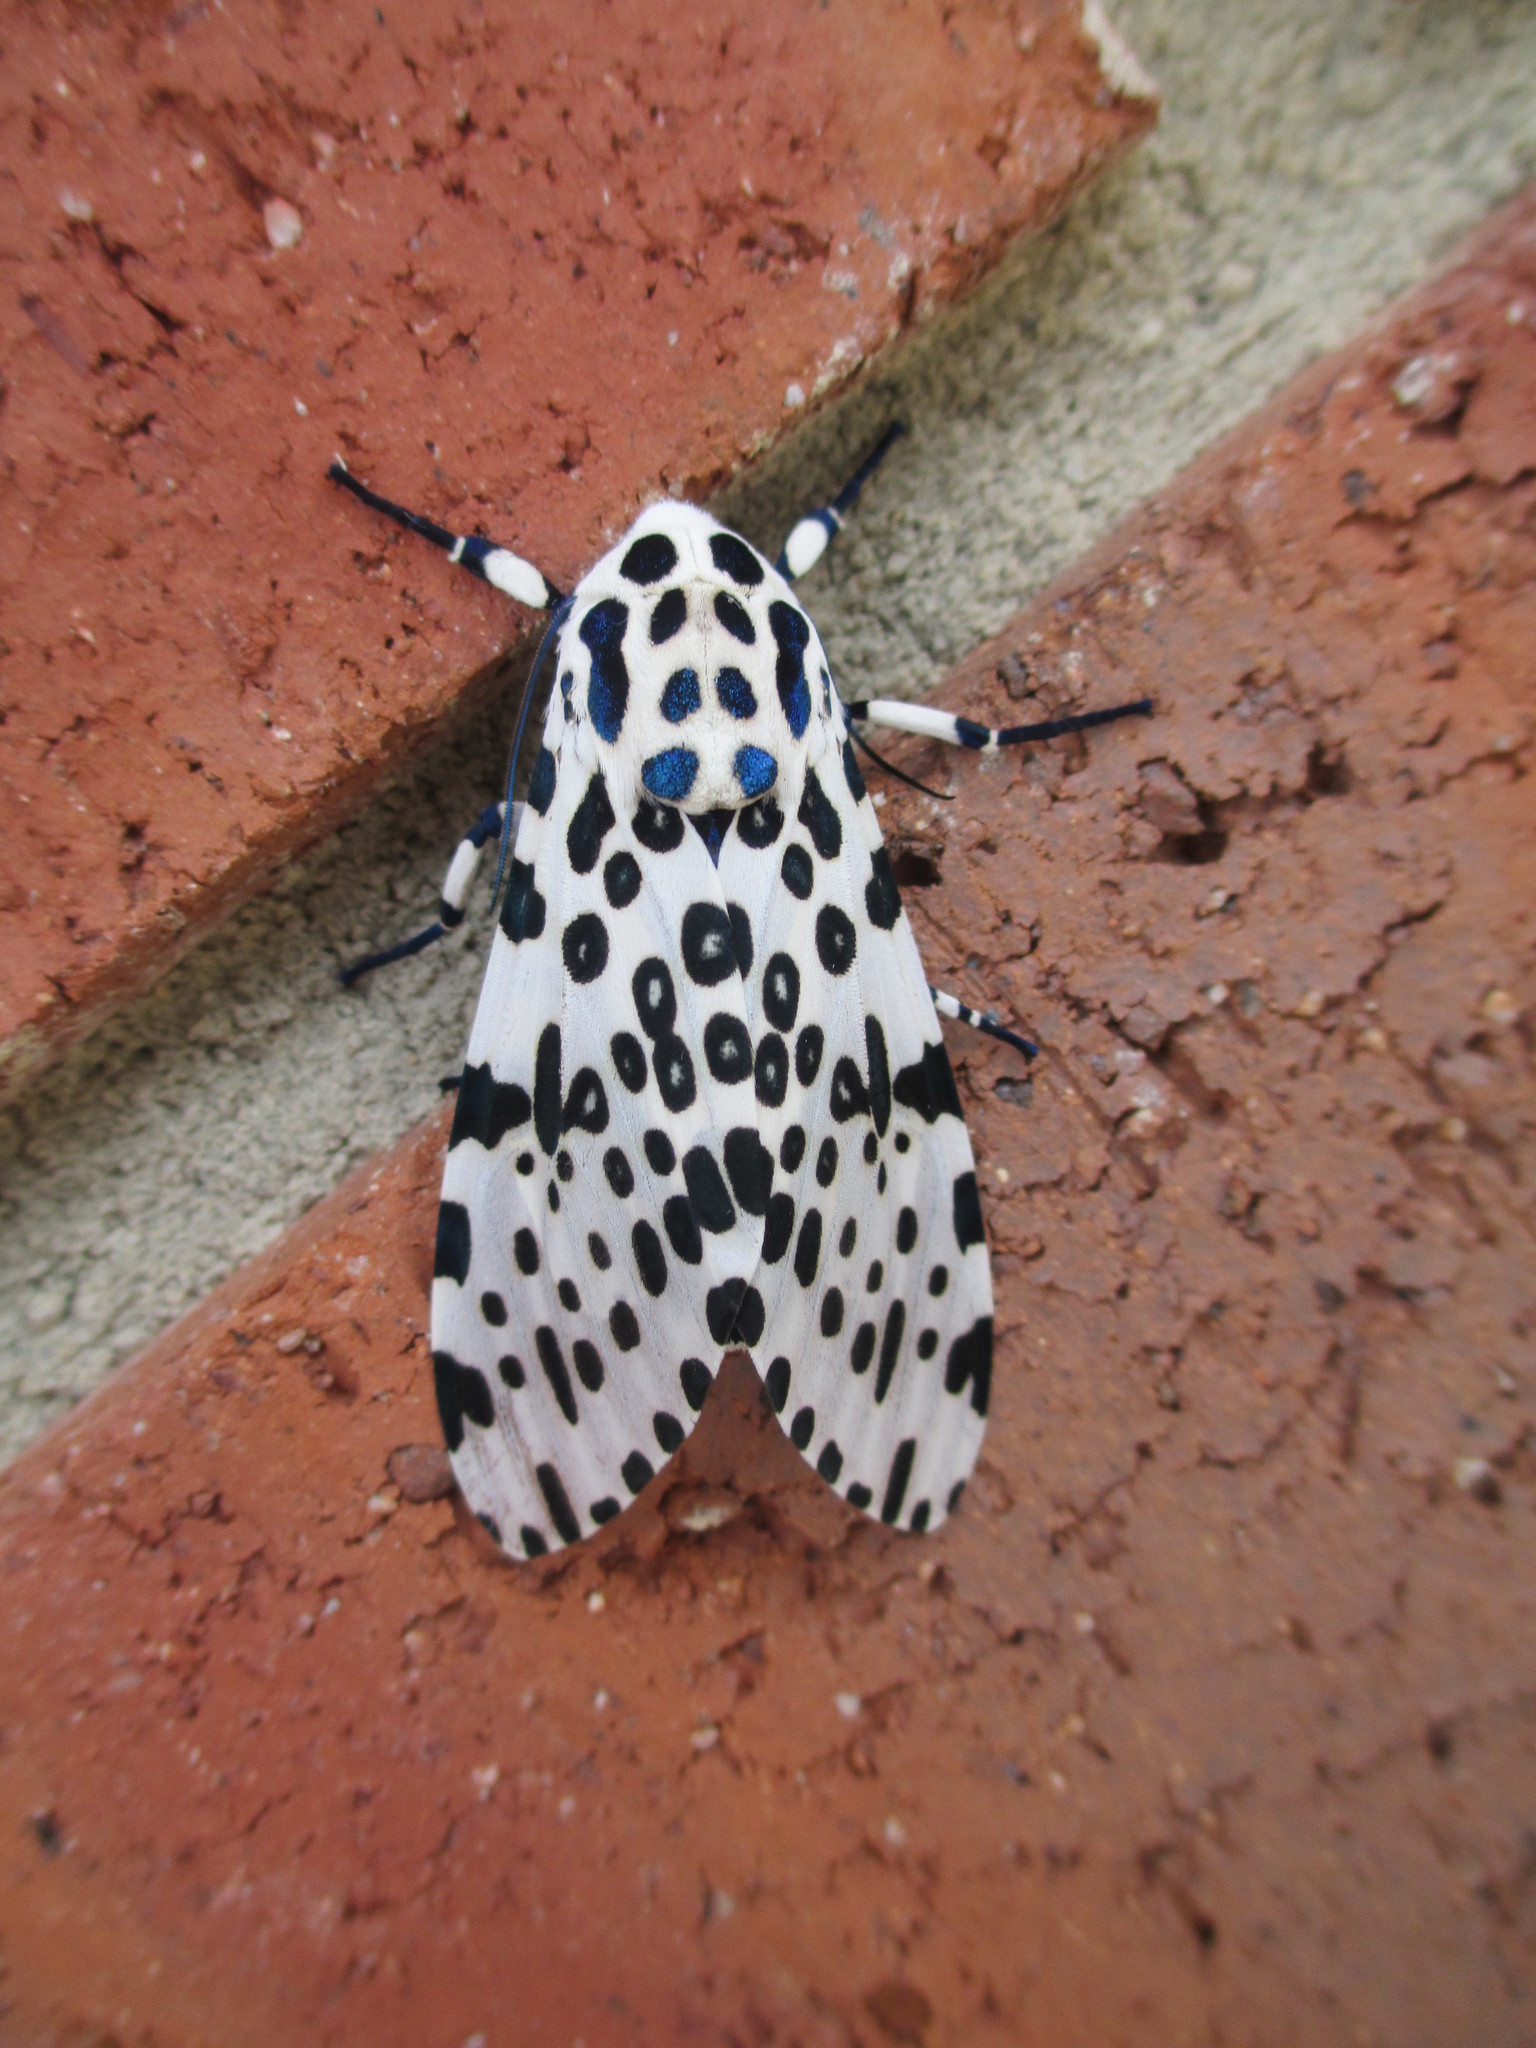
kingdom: Animalia
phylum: Arthropoda
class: Insecta
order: Lepidoptera
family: Erebidae
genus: Hypercompe
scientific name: Hypercompe scribonia
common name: Giant leopard moth
